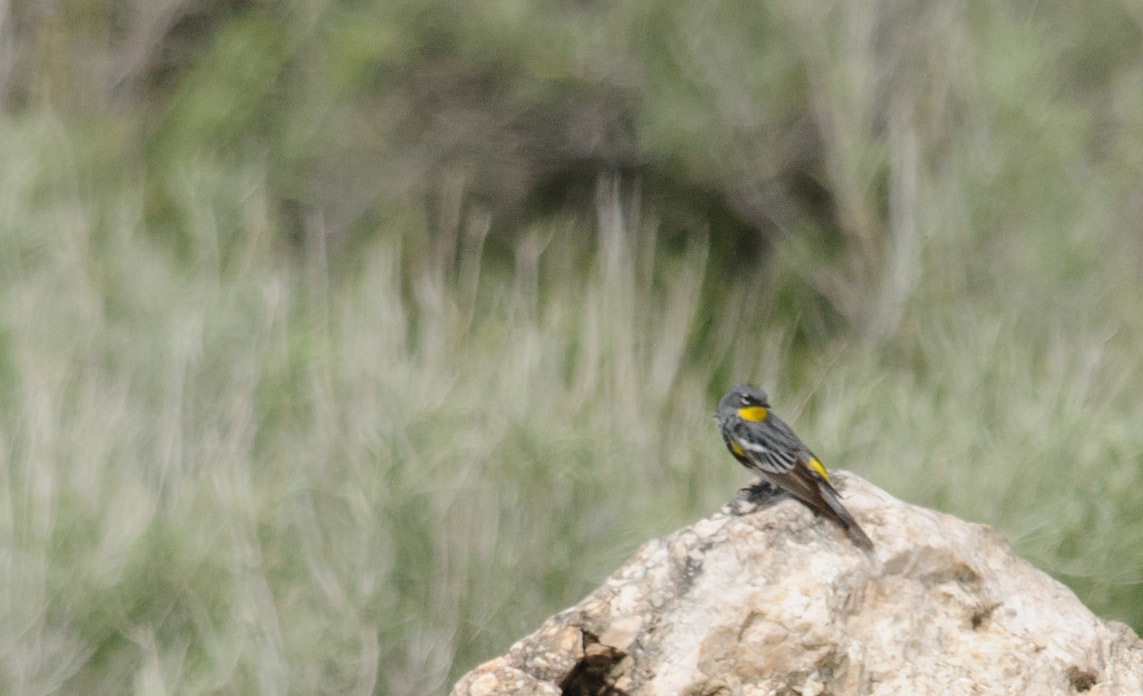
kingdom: Animalia
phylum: Chordata
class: Aves
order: Passeriformes
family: Parulidae
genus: Setophaga
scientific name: Setophaga coronata
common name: Myrtle warbler
